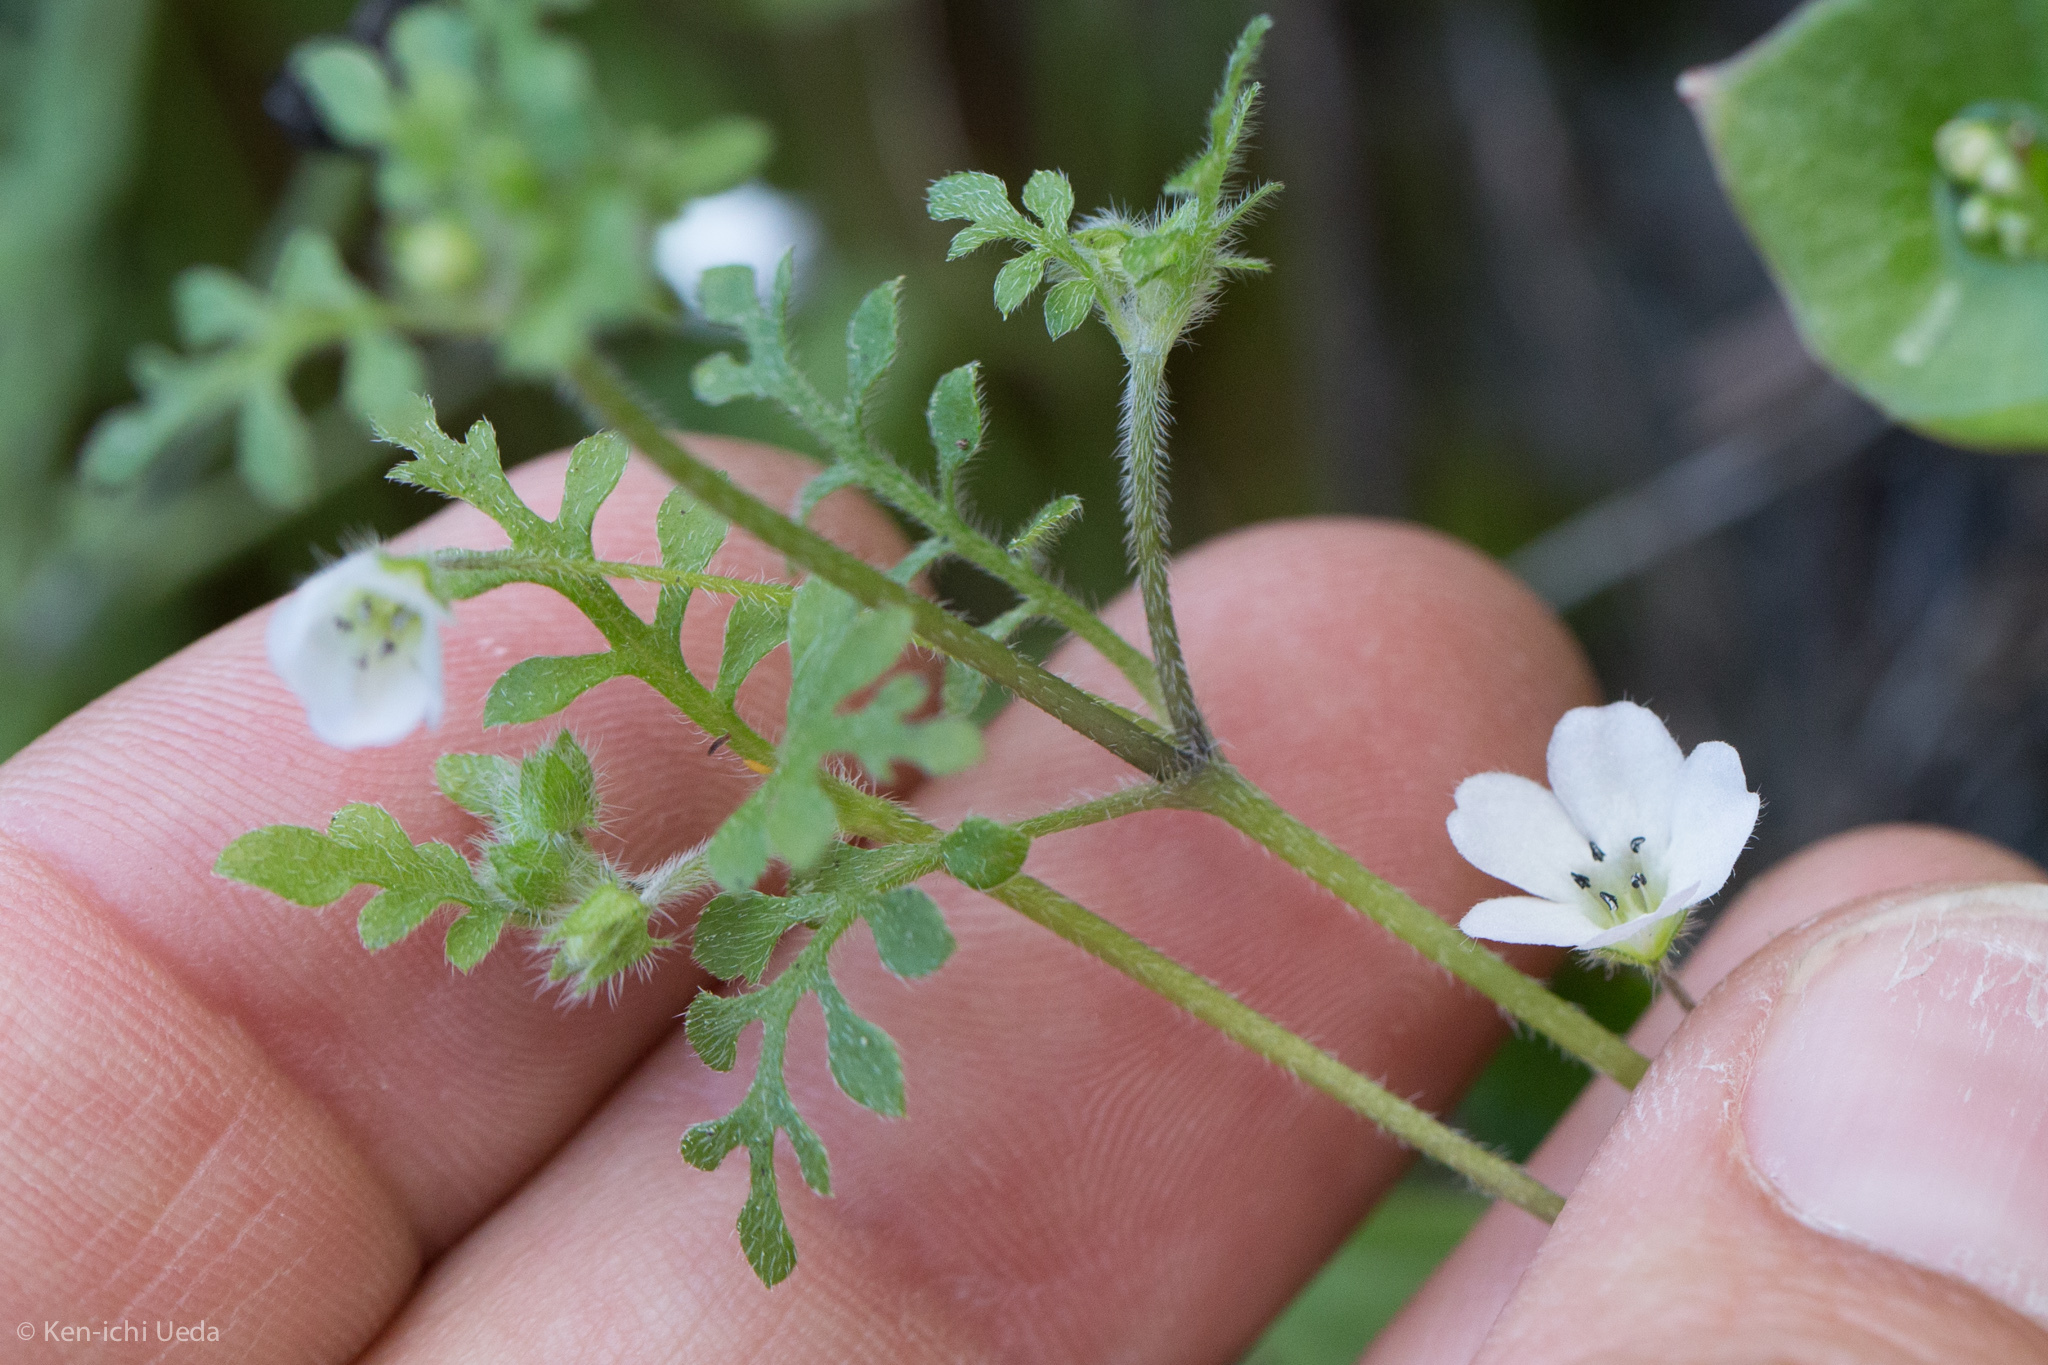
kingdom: Plantae
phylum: Tracheophyta
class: Magnoliopsida
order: Boraginales
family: Hydrophyllaceae
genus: Nemophila
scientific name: Nemophila heterophylla
